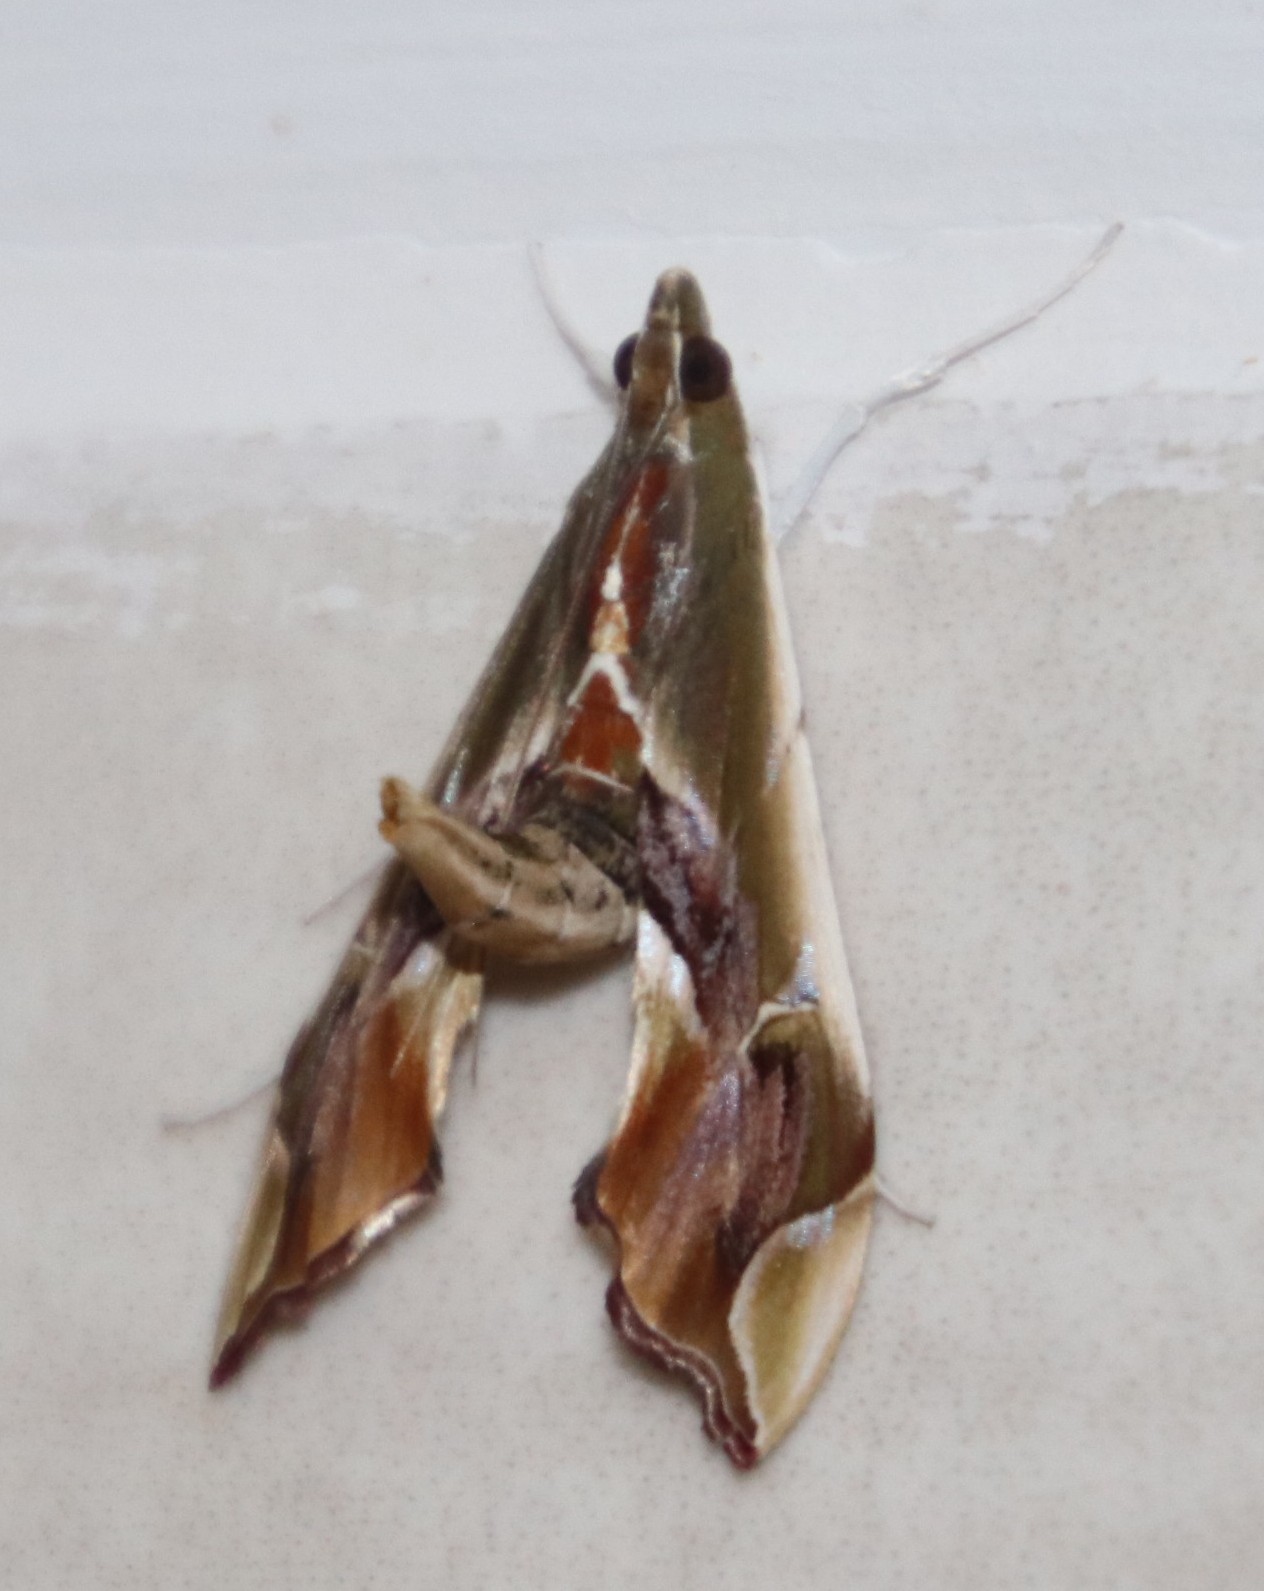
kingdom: Animalia
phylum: Arthropoda
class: Insecta
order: Lepidoptera
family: Crambidae
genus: Agathodes
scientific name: Agathodes musivalis
